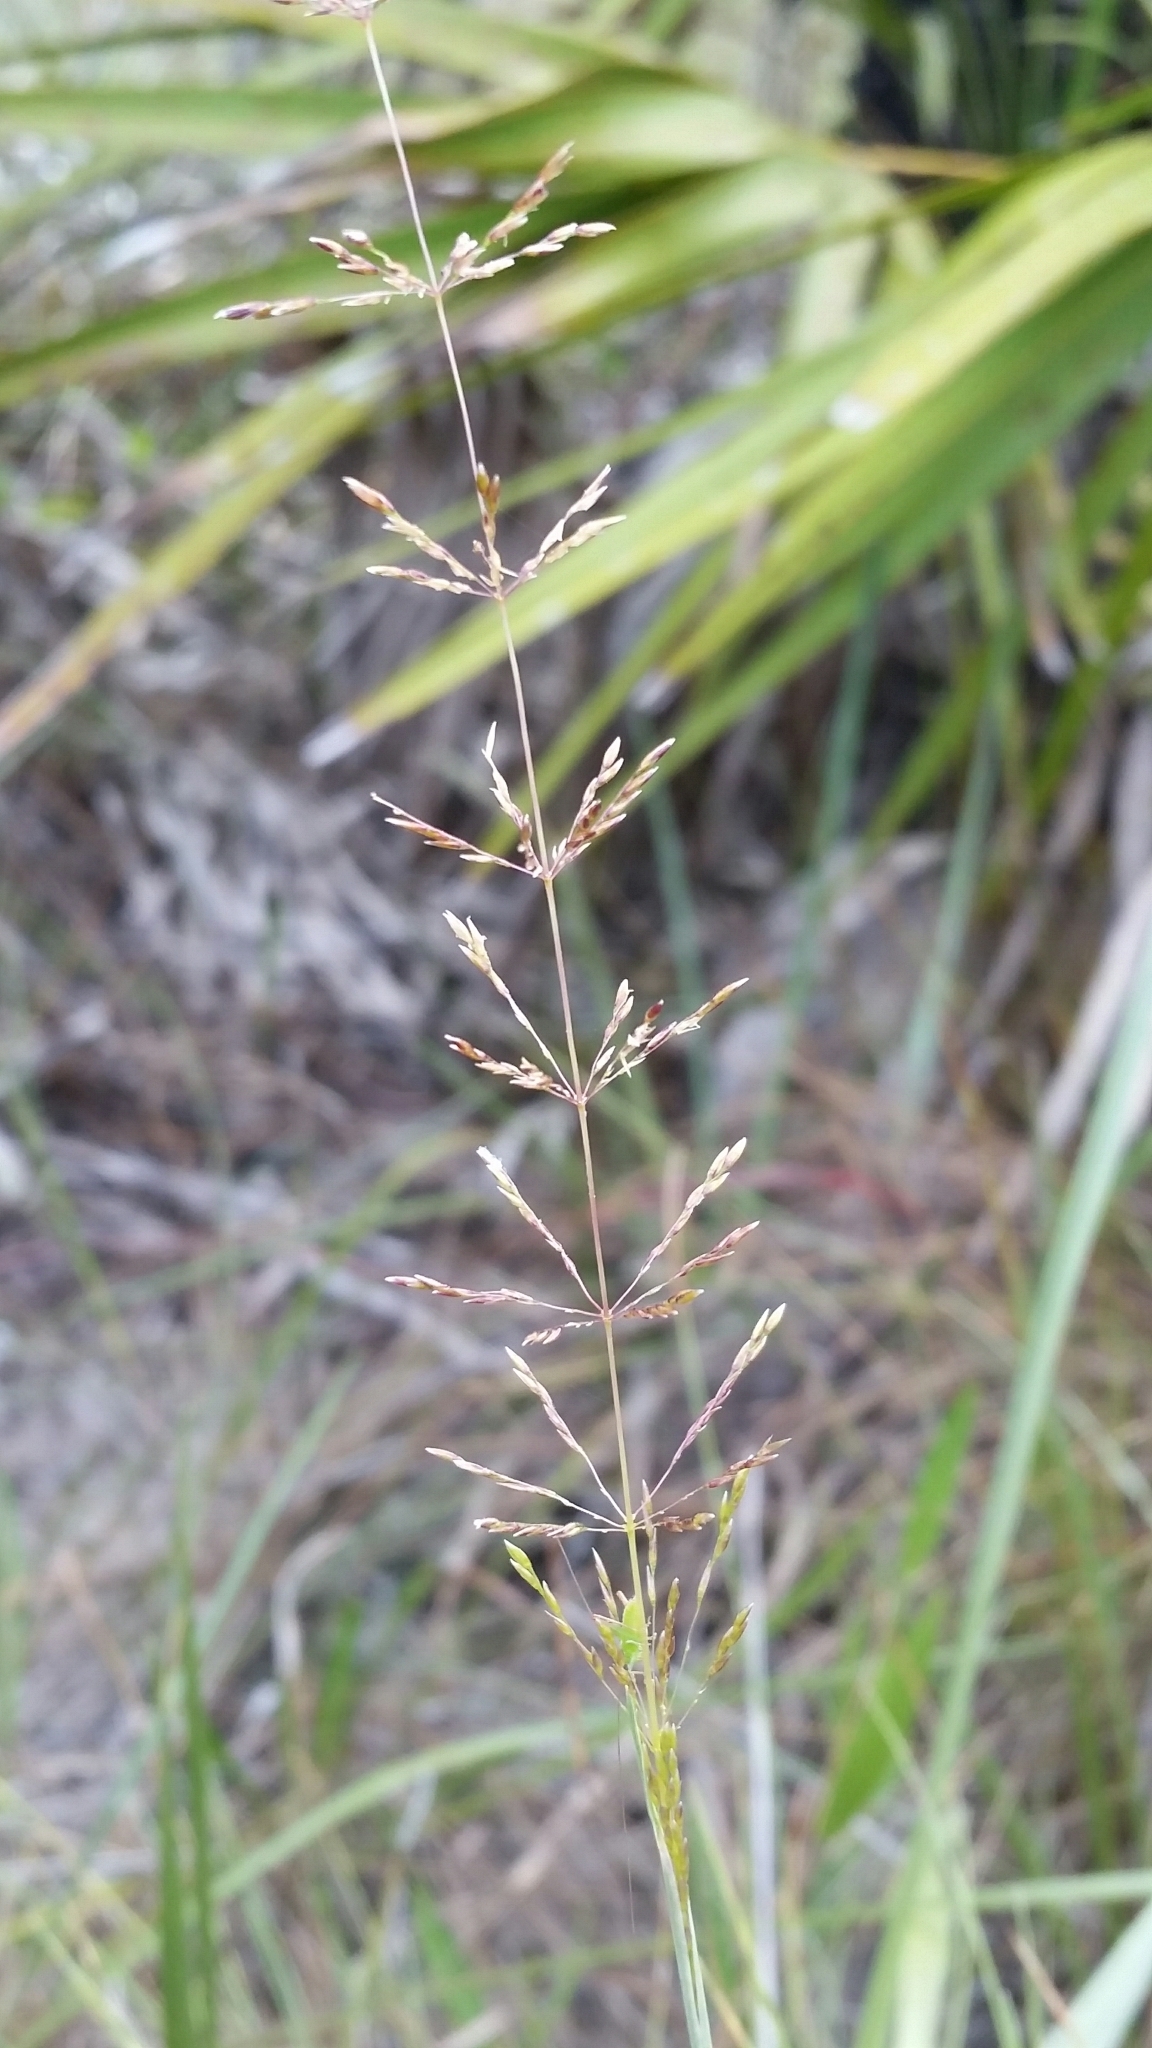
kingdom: Plantae
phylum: Tracheophyta
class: Liliopsida
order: Poales
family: Poaceae
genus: Sporobolus
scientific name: Sporobolus junceus
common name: Lizard grass
